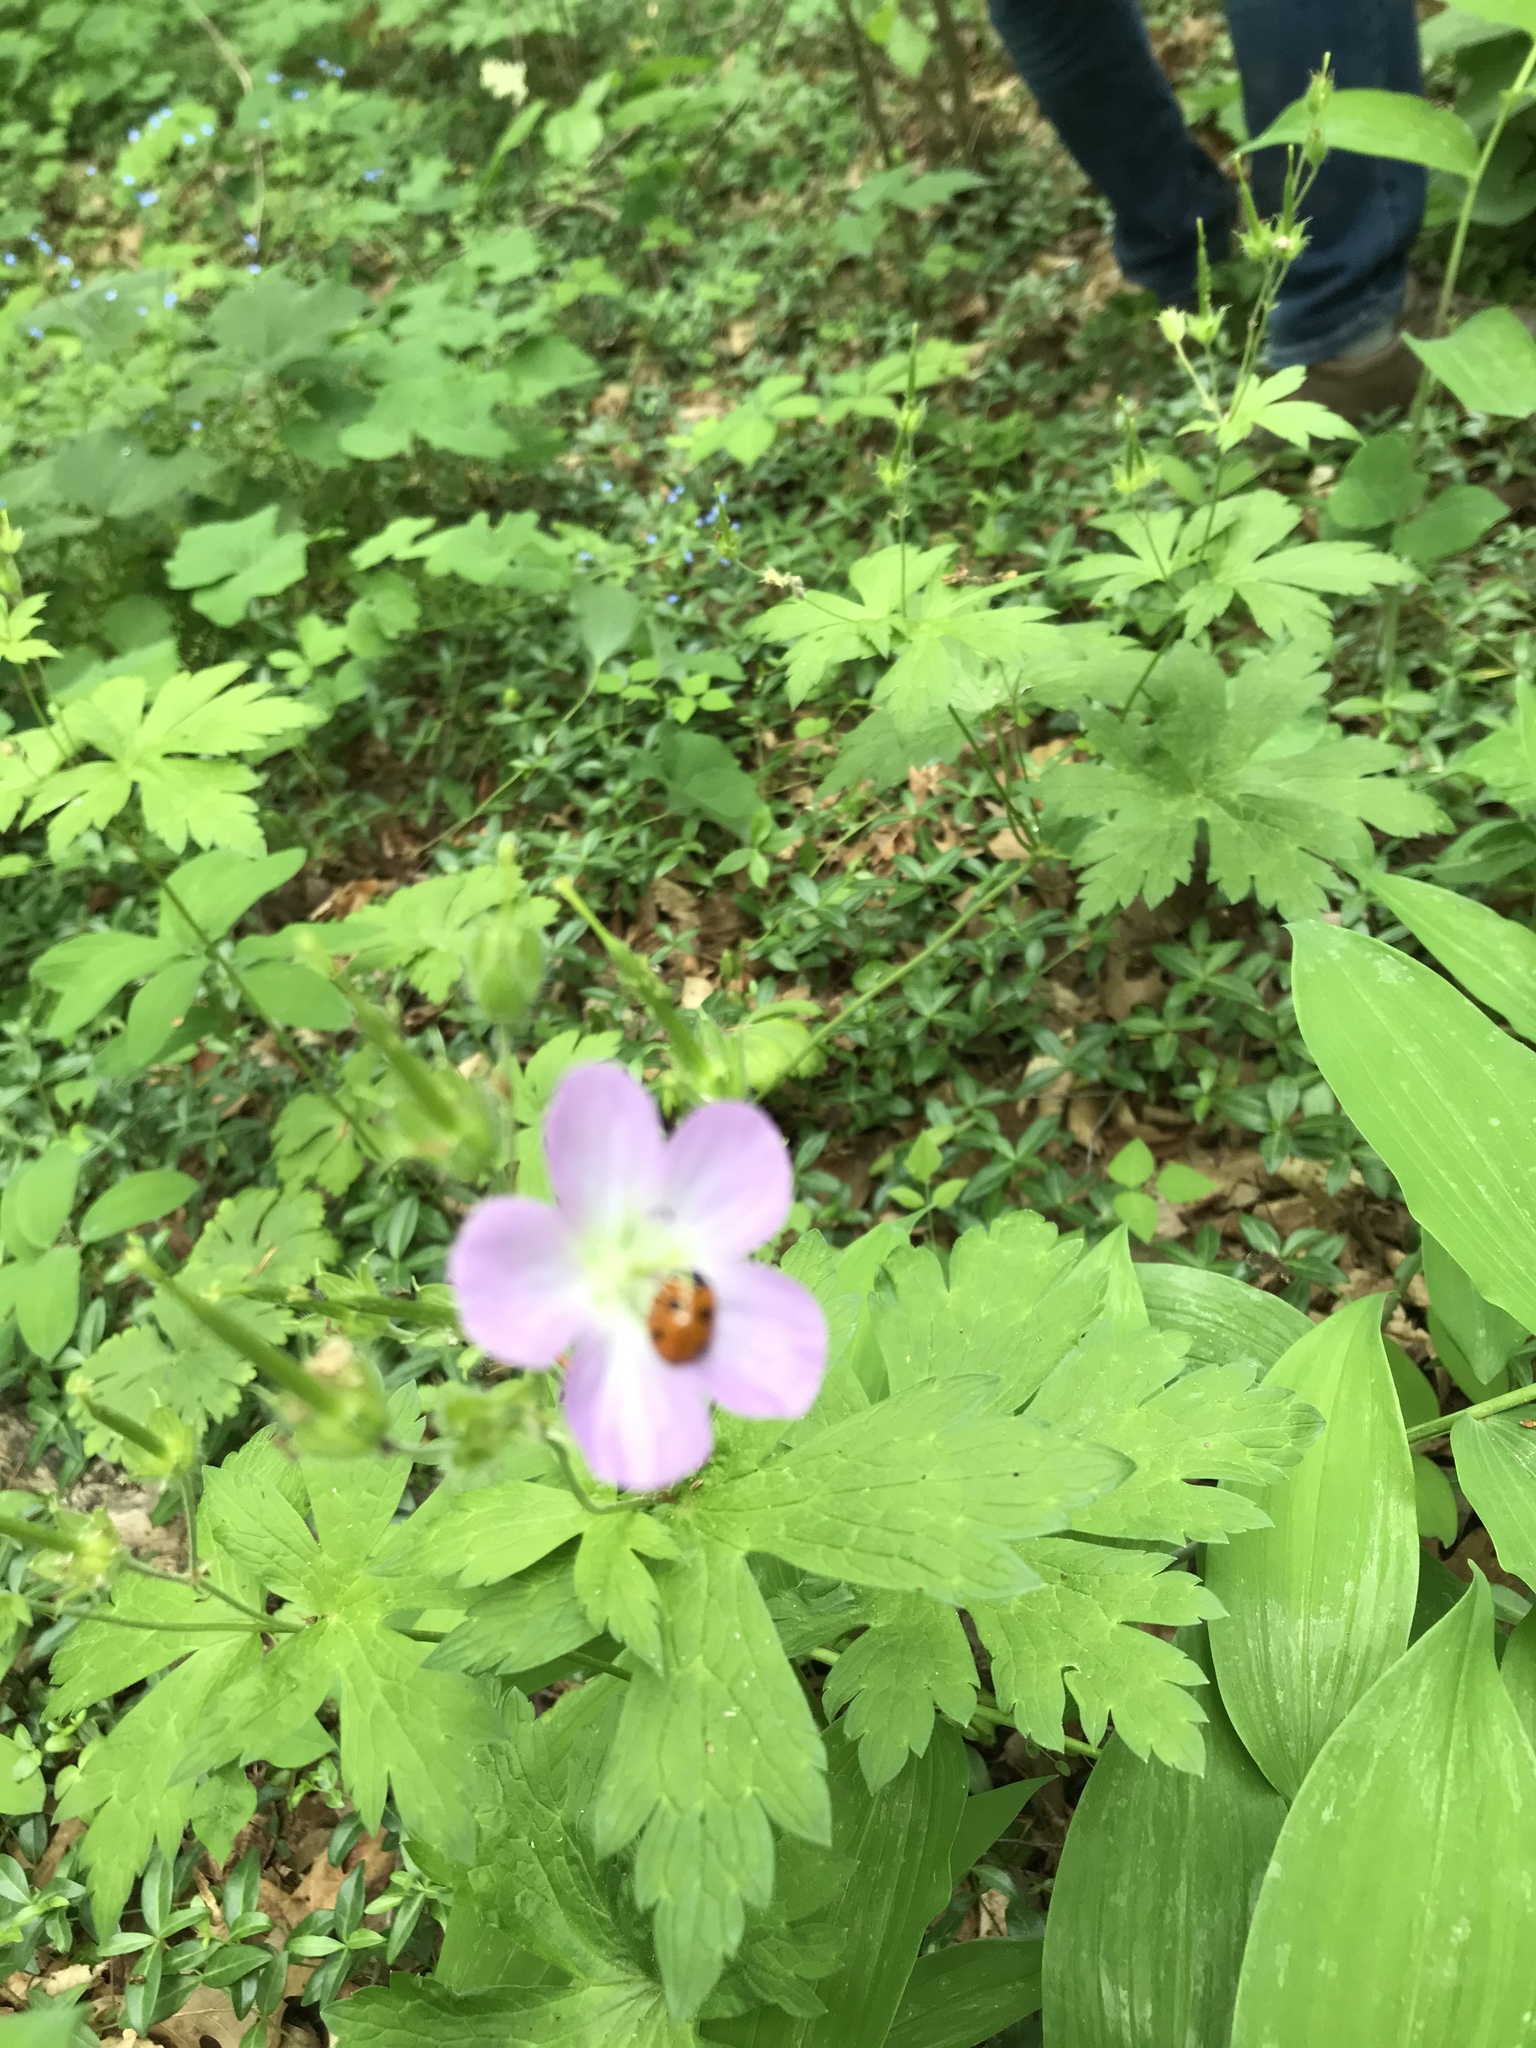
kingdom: Plantae
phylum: Tracheophyta
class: Magnoliopsida
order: Geraniales
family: Geraniaceae
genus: Geranium
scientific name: Geranium maculatum
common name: Spotted geranium
